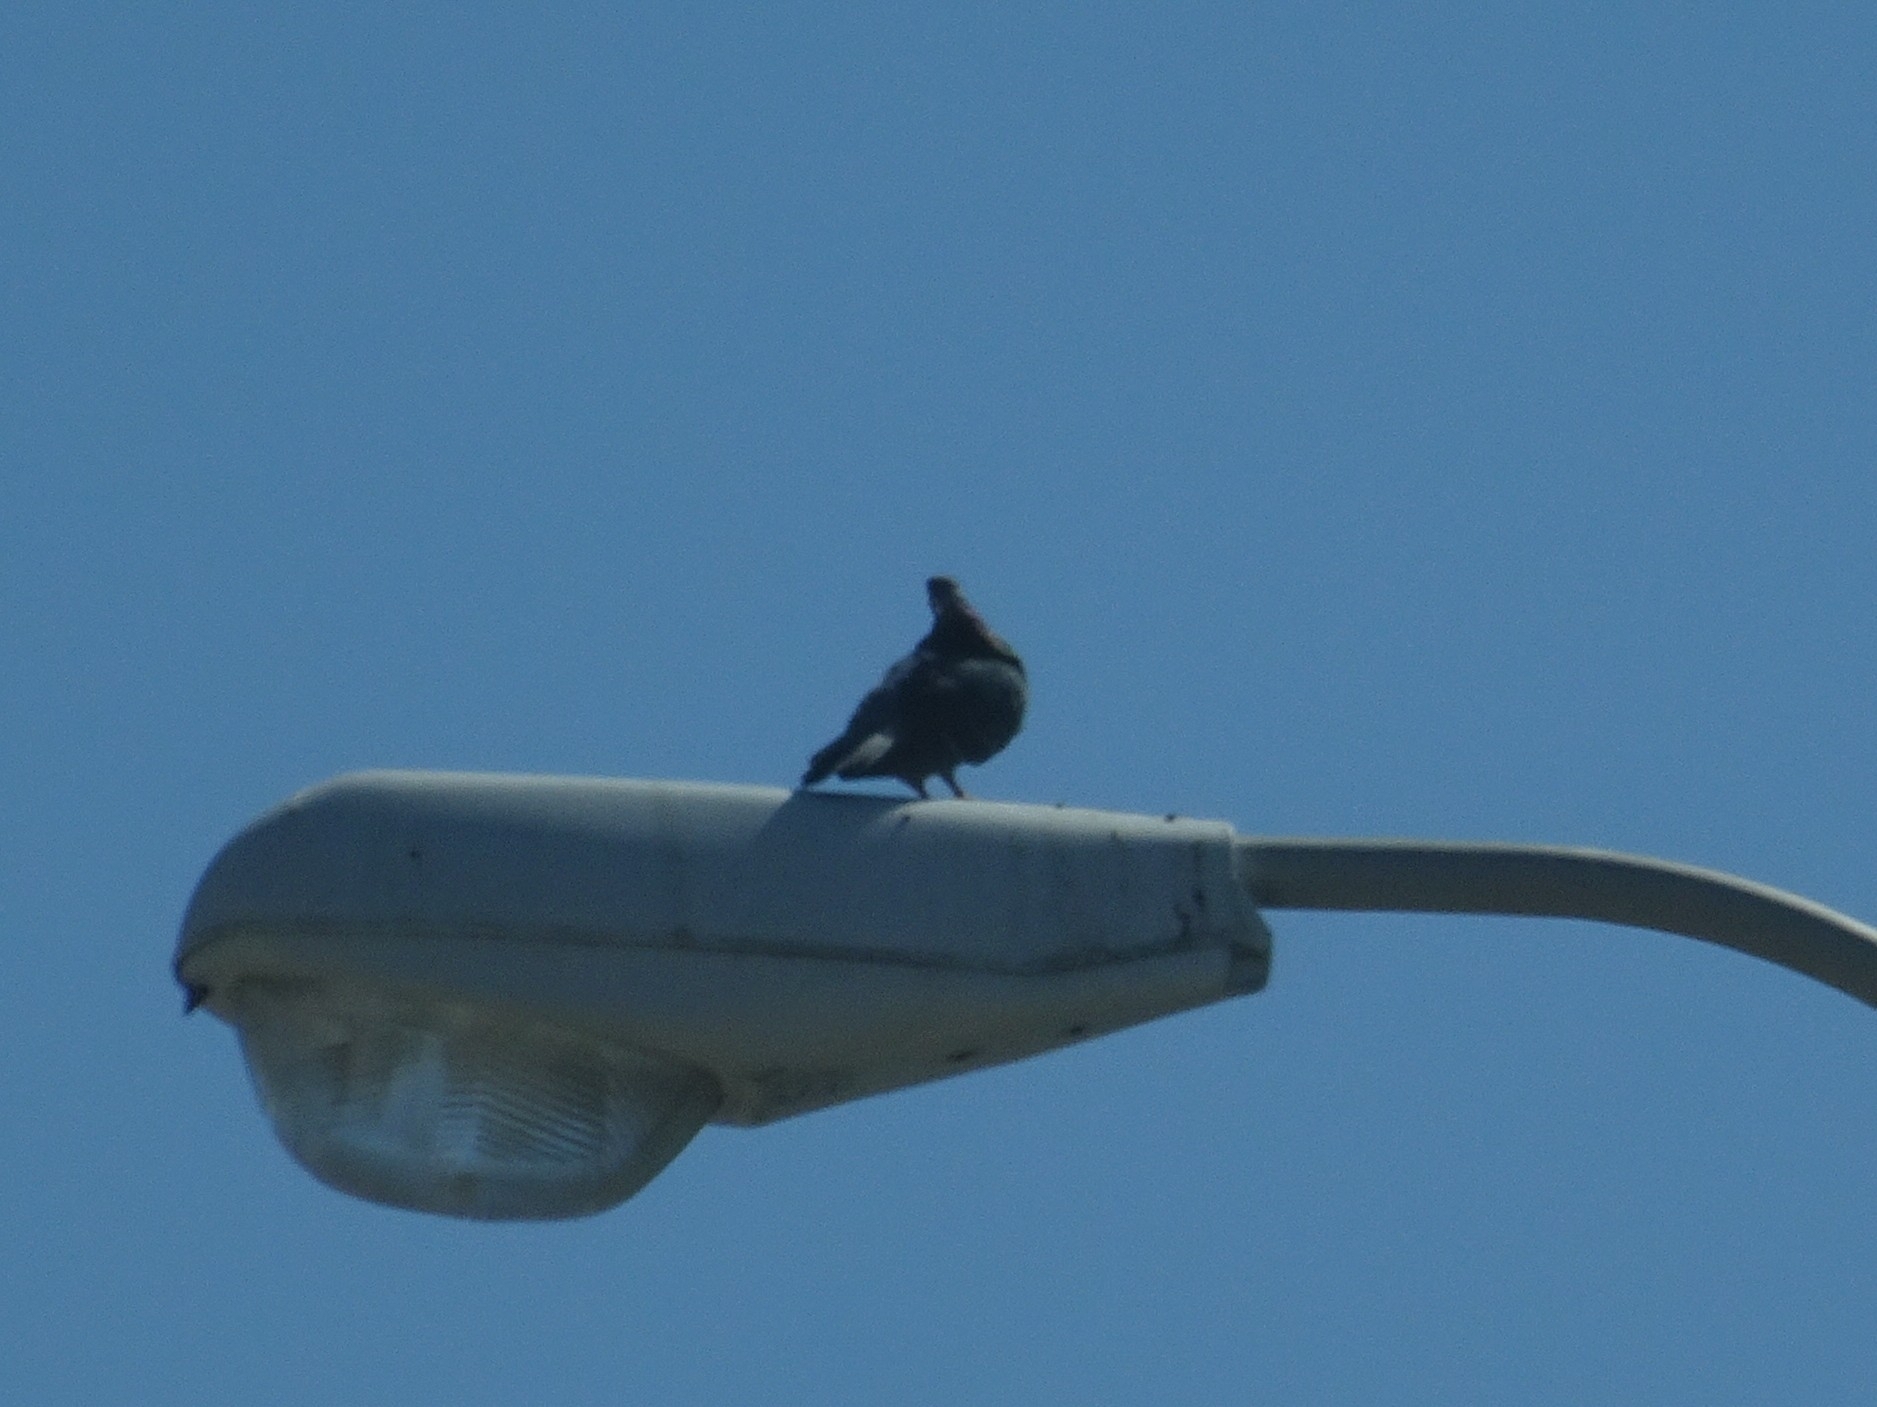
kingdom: Animalia
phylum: Chordata
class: Aves
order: Columbiformes
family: Columbidae
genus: Columba
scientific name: Columba livia
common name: Rock pigeon
